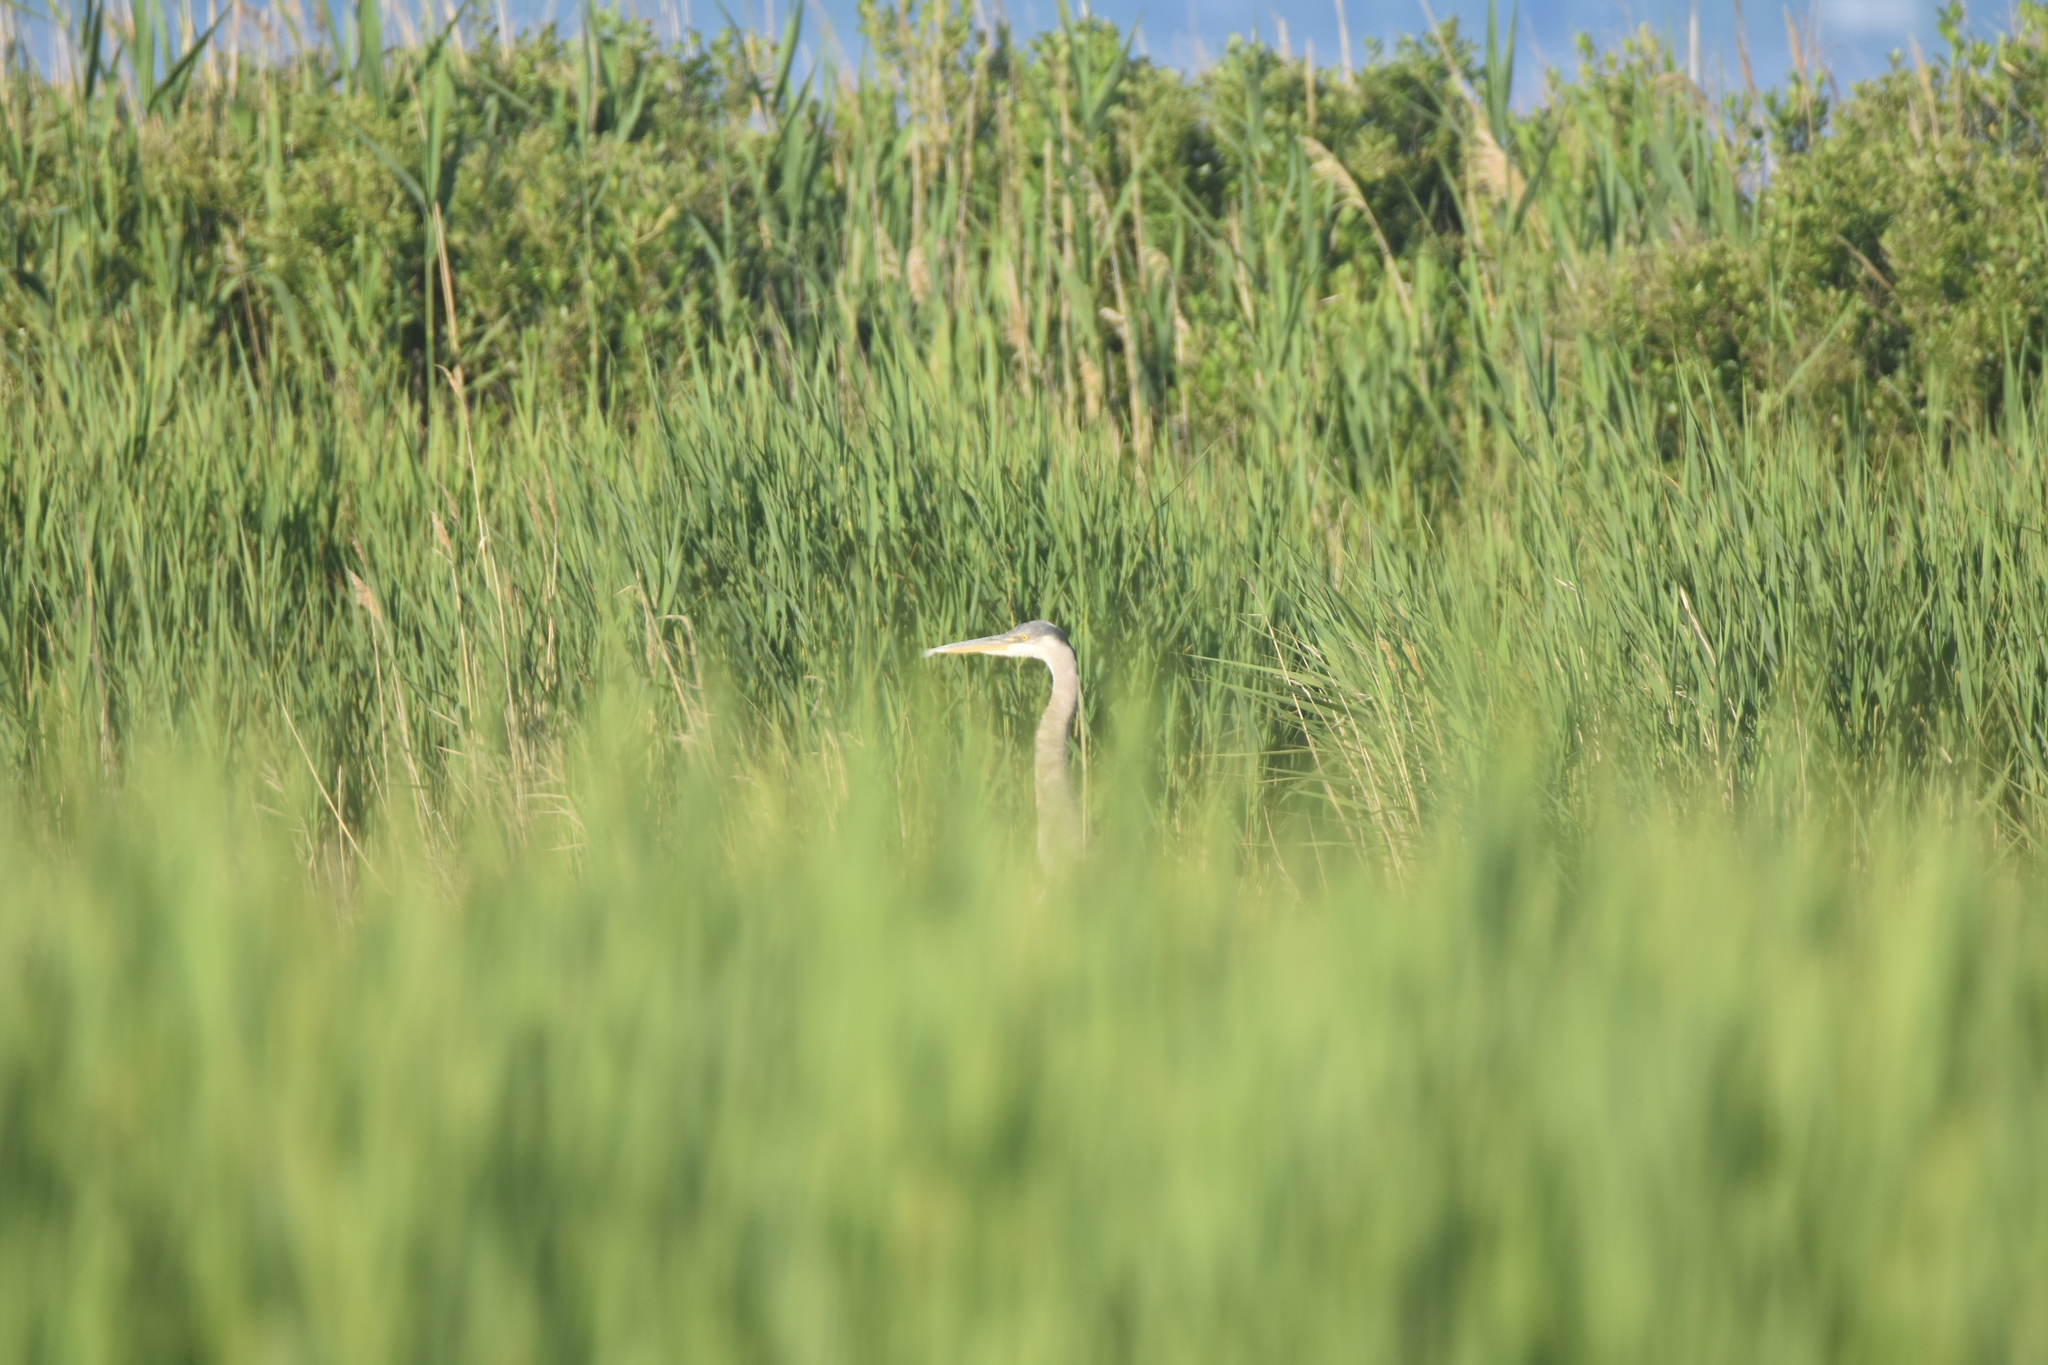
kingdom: Animalia
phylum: Chordata
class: Aves
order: Pelecaniformes
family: Ardeidae
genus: Ardea
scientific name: Ardea herodias
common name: Great blue heron
